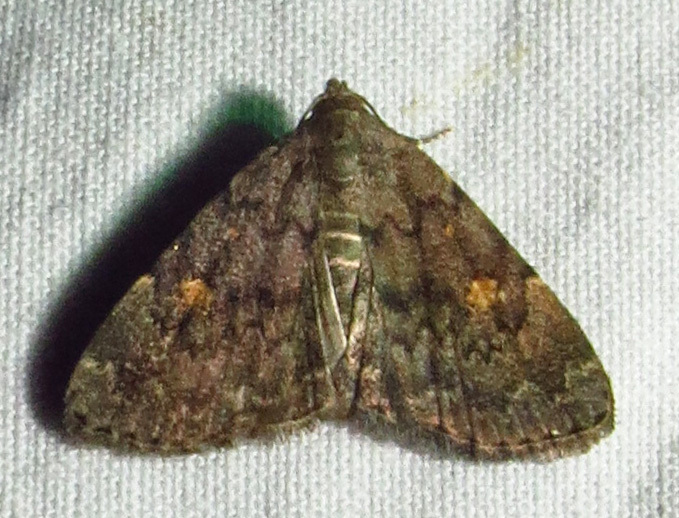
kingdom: Animalia
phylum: Arthropoda
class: Insecta
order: Lepidoptera
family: Erebidae
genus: Idia
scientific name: Idia aemula
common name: Common idia moth
